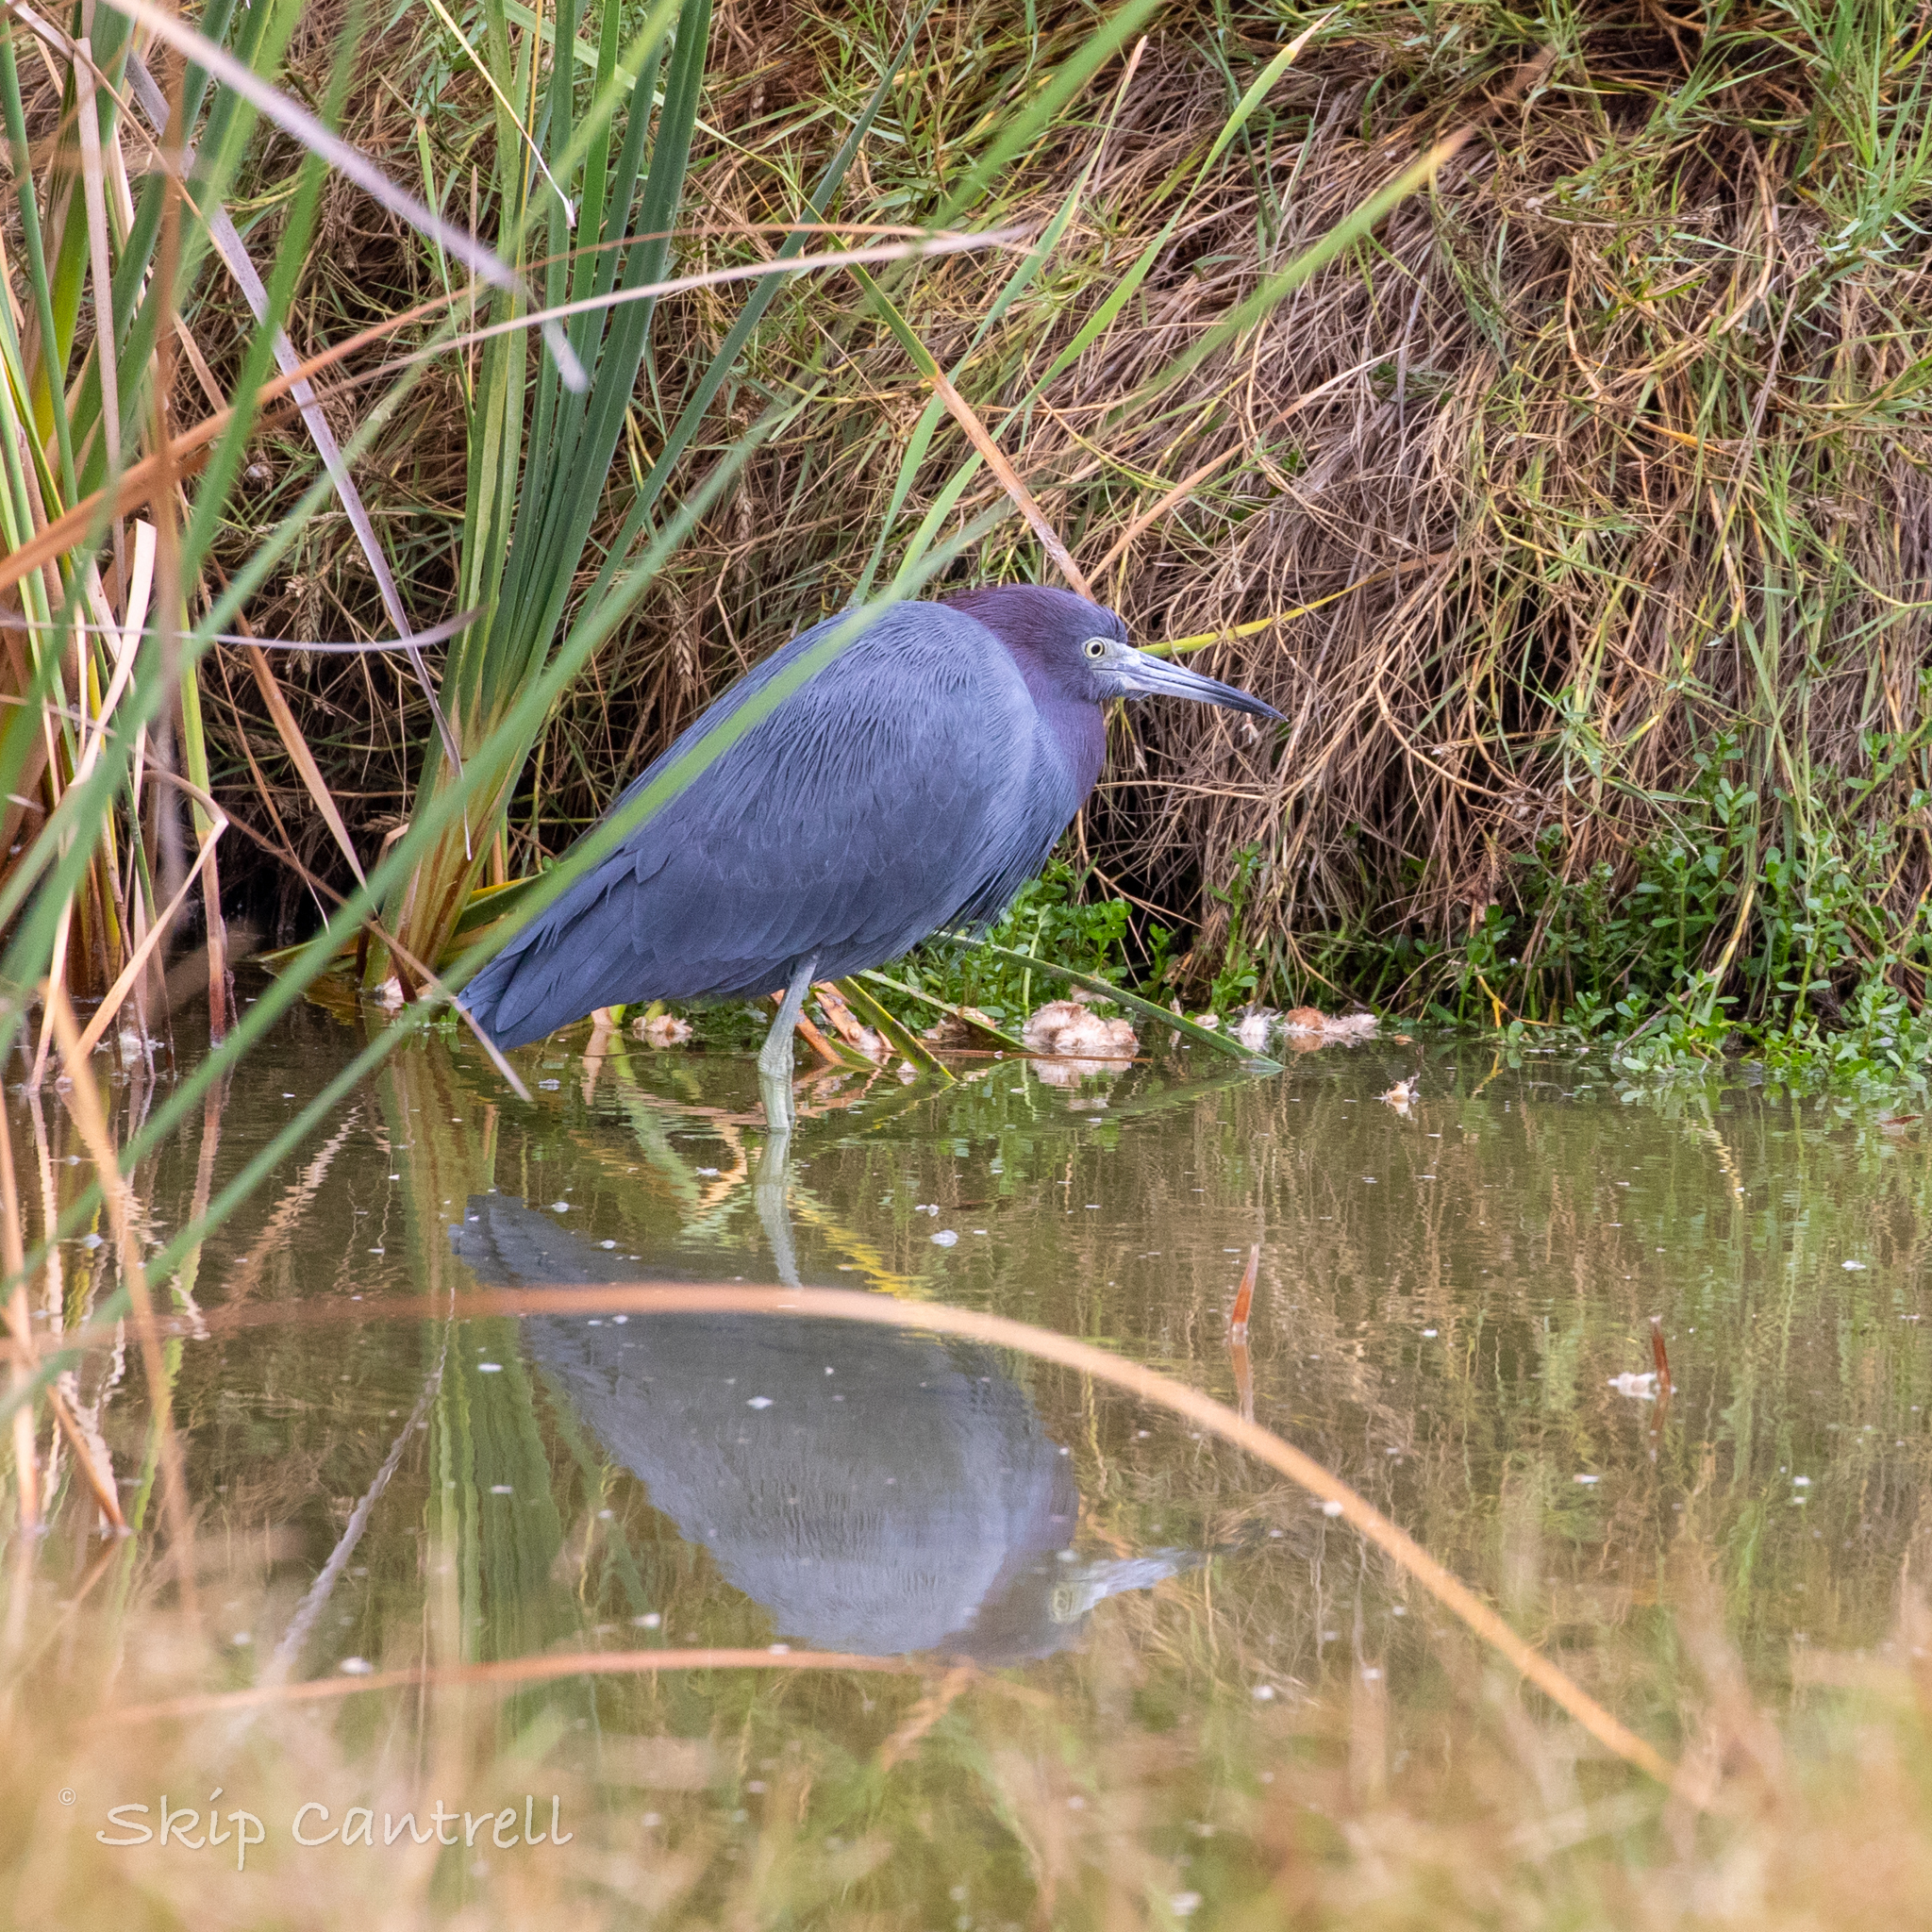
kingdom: Animalia
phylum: Chordata
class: Aves
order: Pelecaniformes
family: Ardeidae
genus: Egretta
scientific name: Egretta caerulea
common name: Little blue heron
